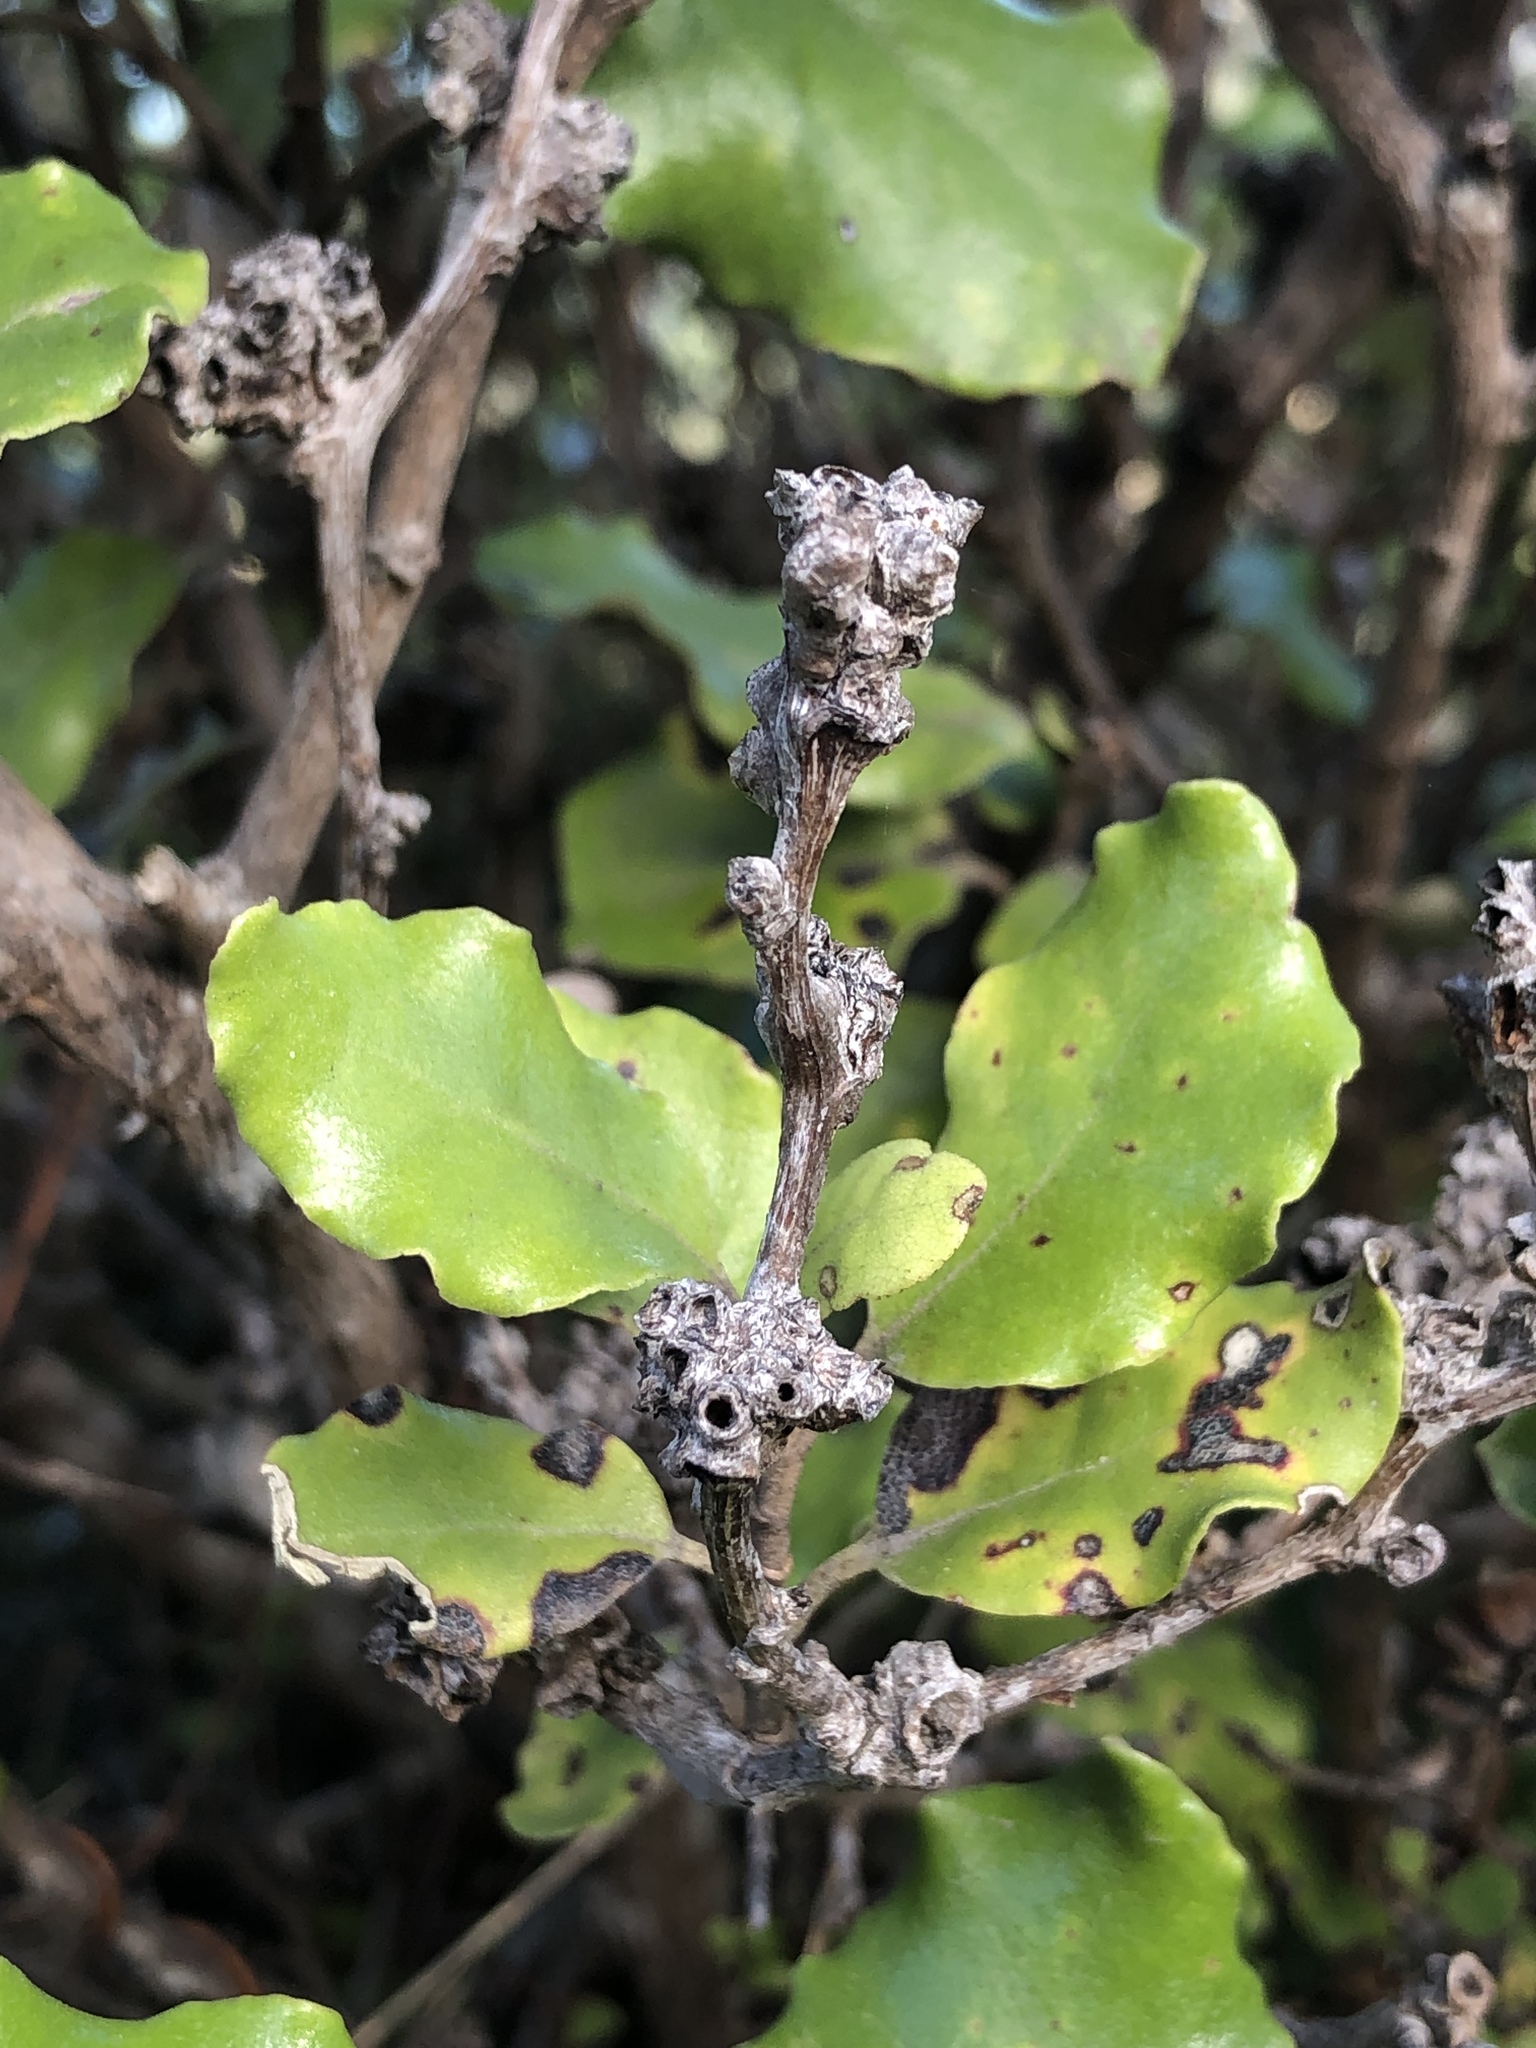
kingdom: Plantae
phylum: Tracheophyta
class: Magnoliopsida
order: Asterales
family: Asteraceae
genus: Olearia
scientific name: Olearia paniculata
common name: Akiraho
